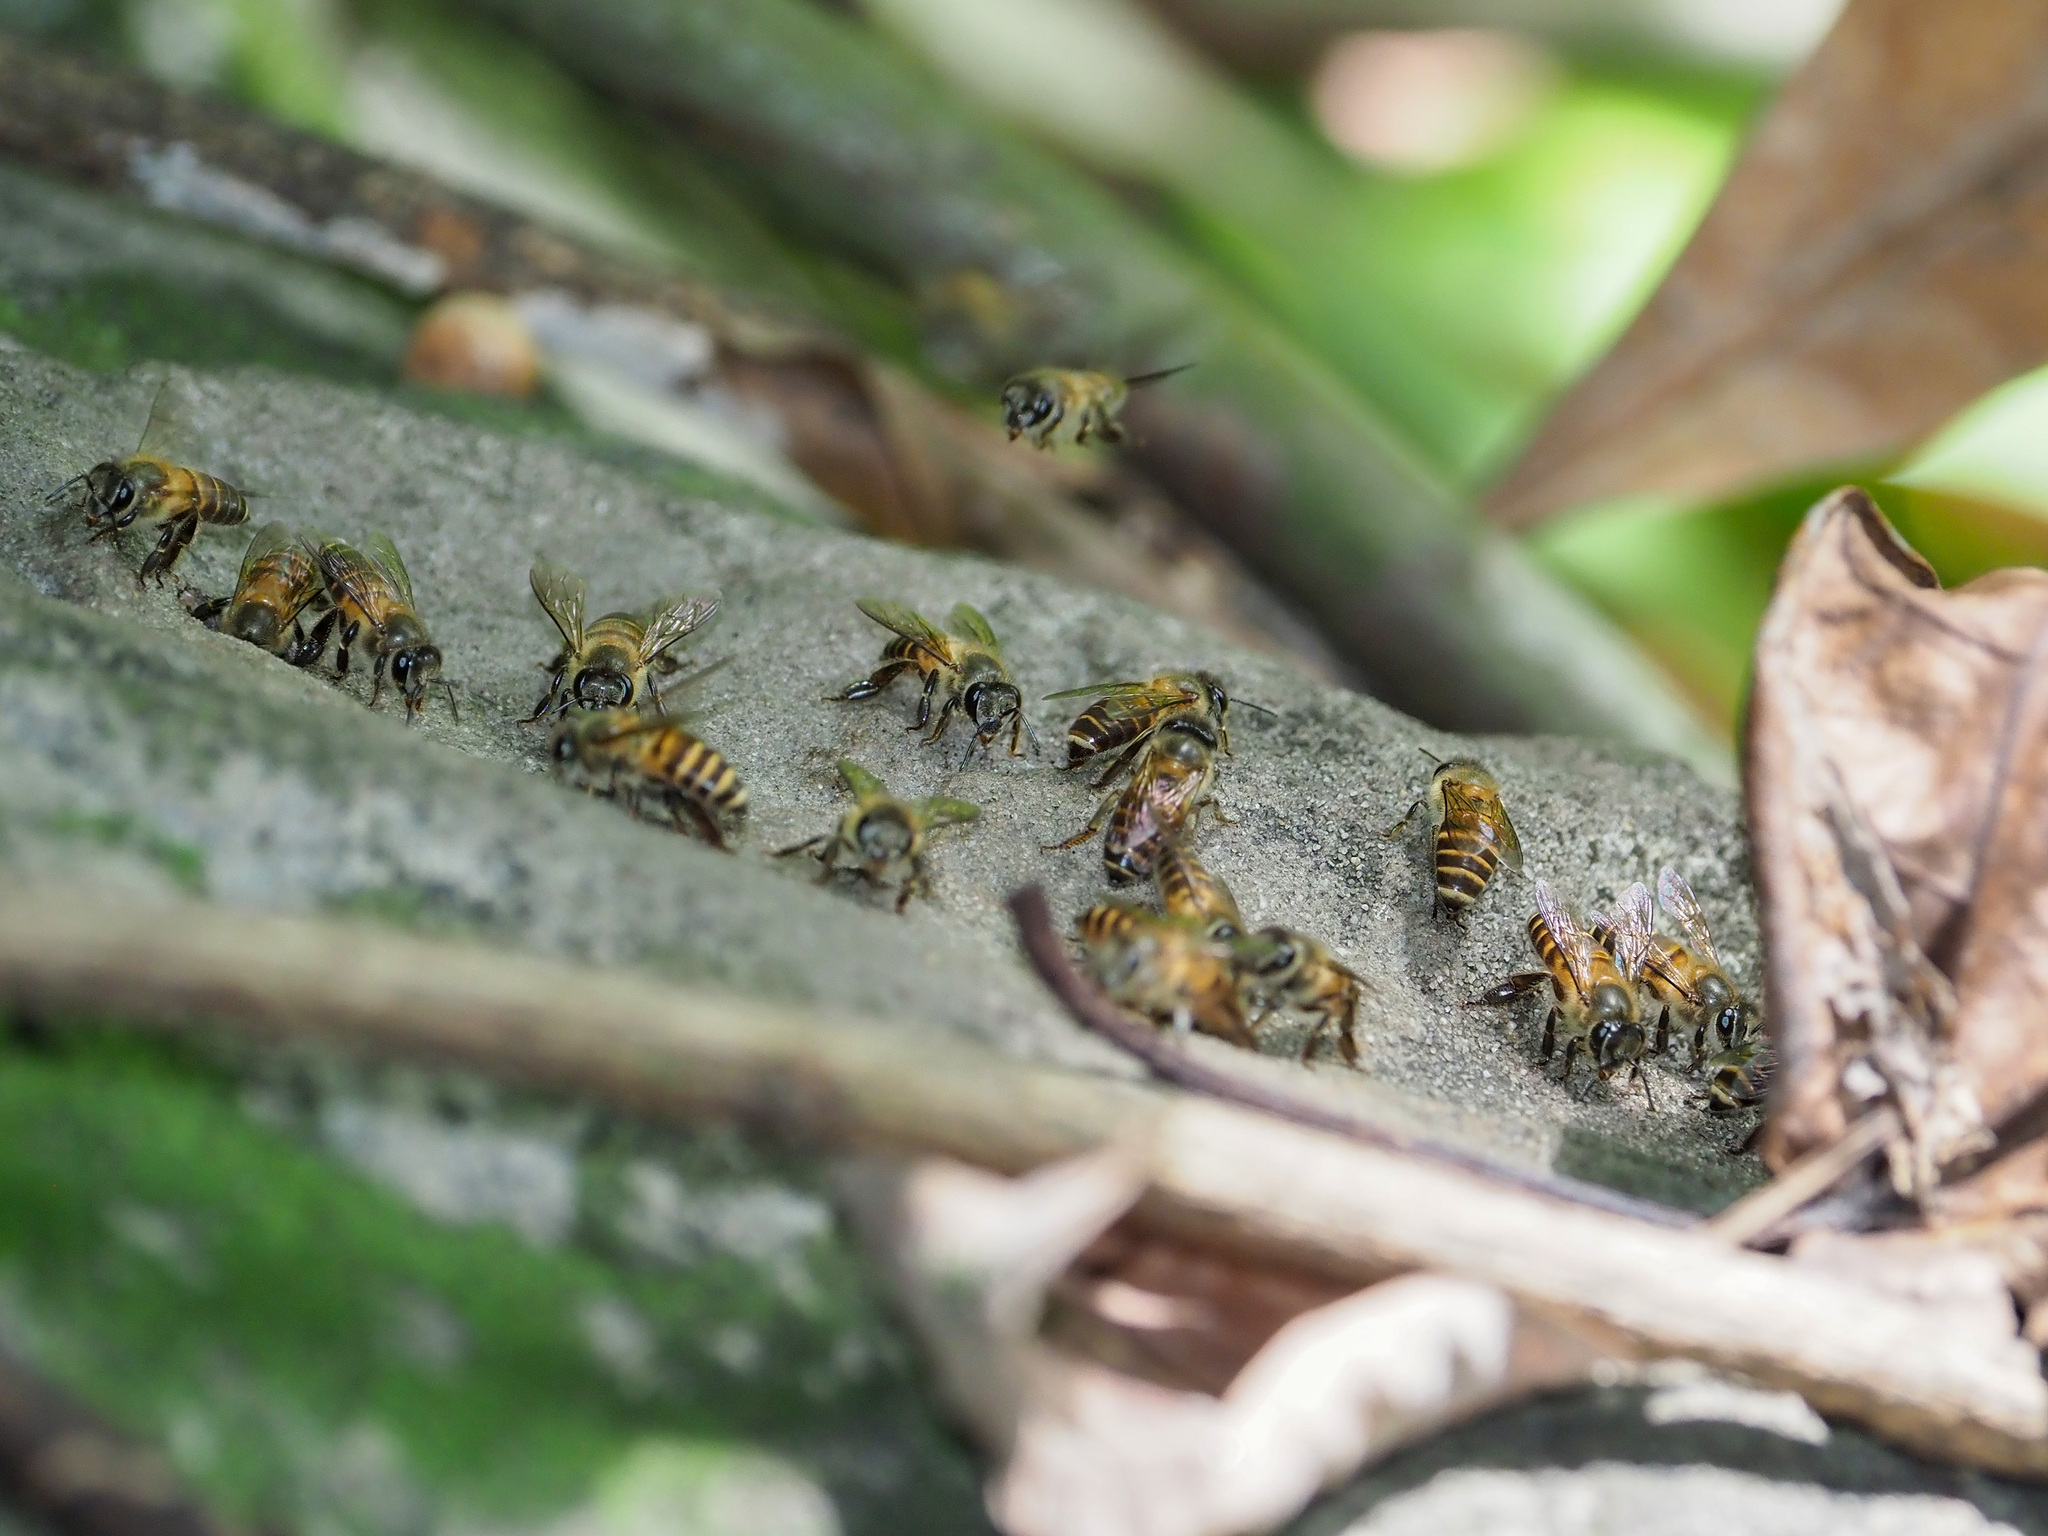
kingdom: Animalia
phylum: Arthropoda
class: Insecta
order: Hymenoptera
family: Apidae
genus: Apis
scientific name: Apis cerana
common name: Honey bee
